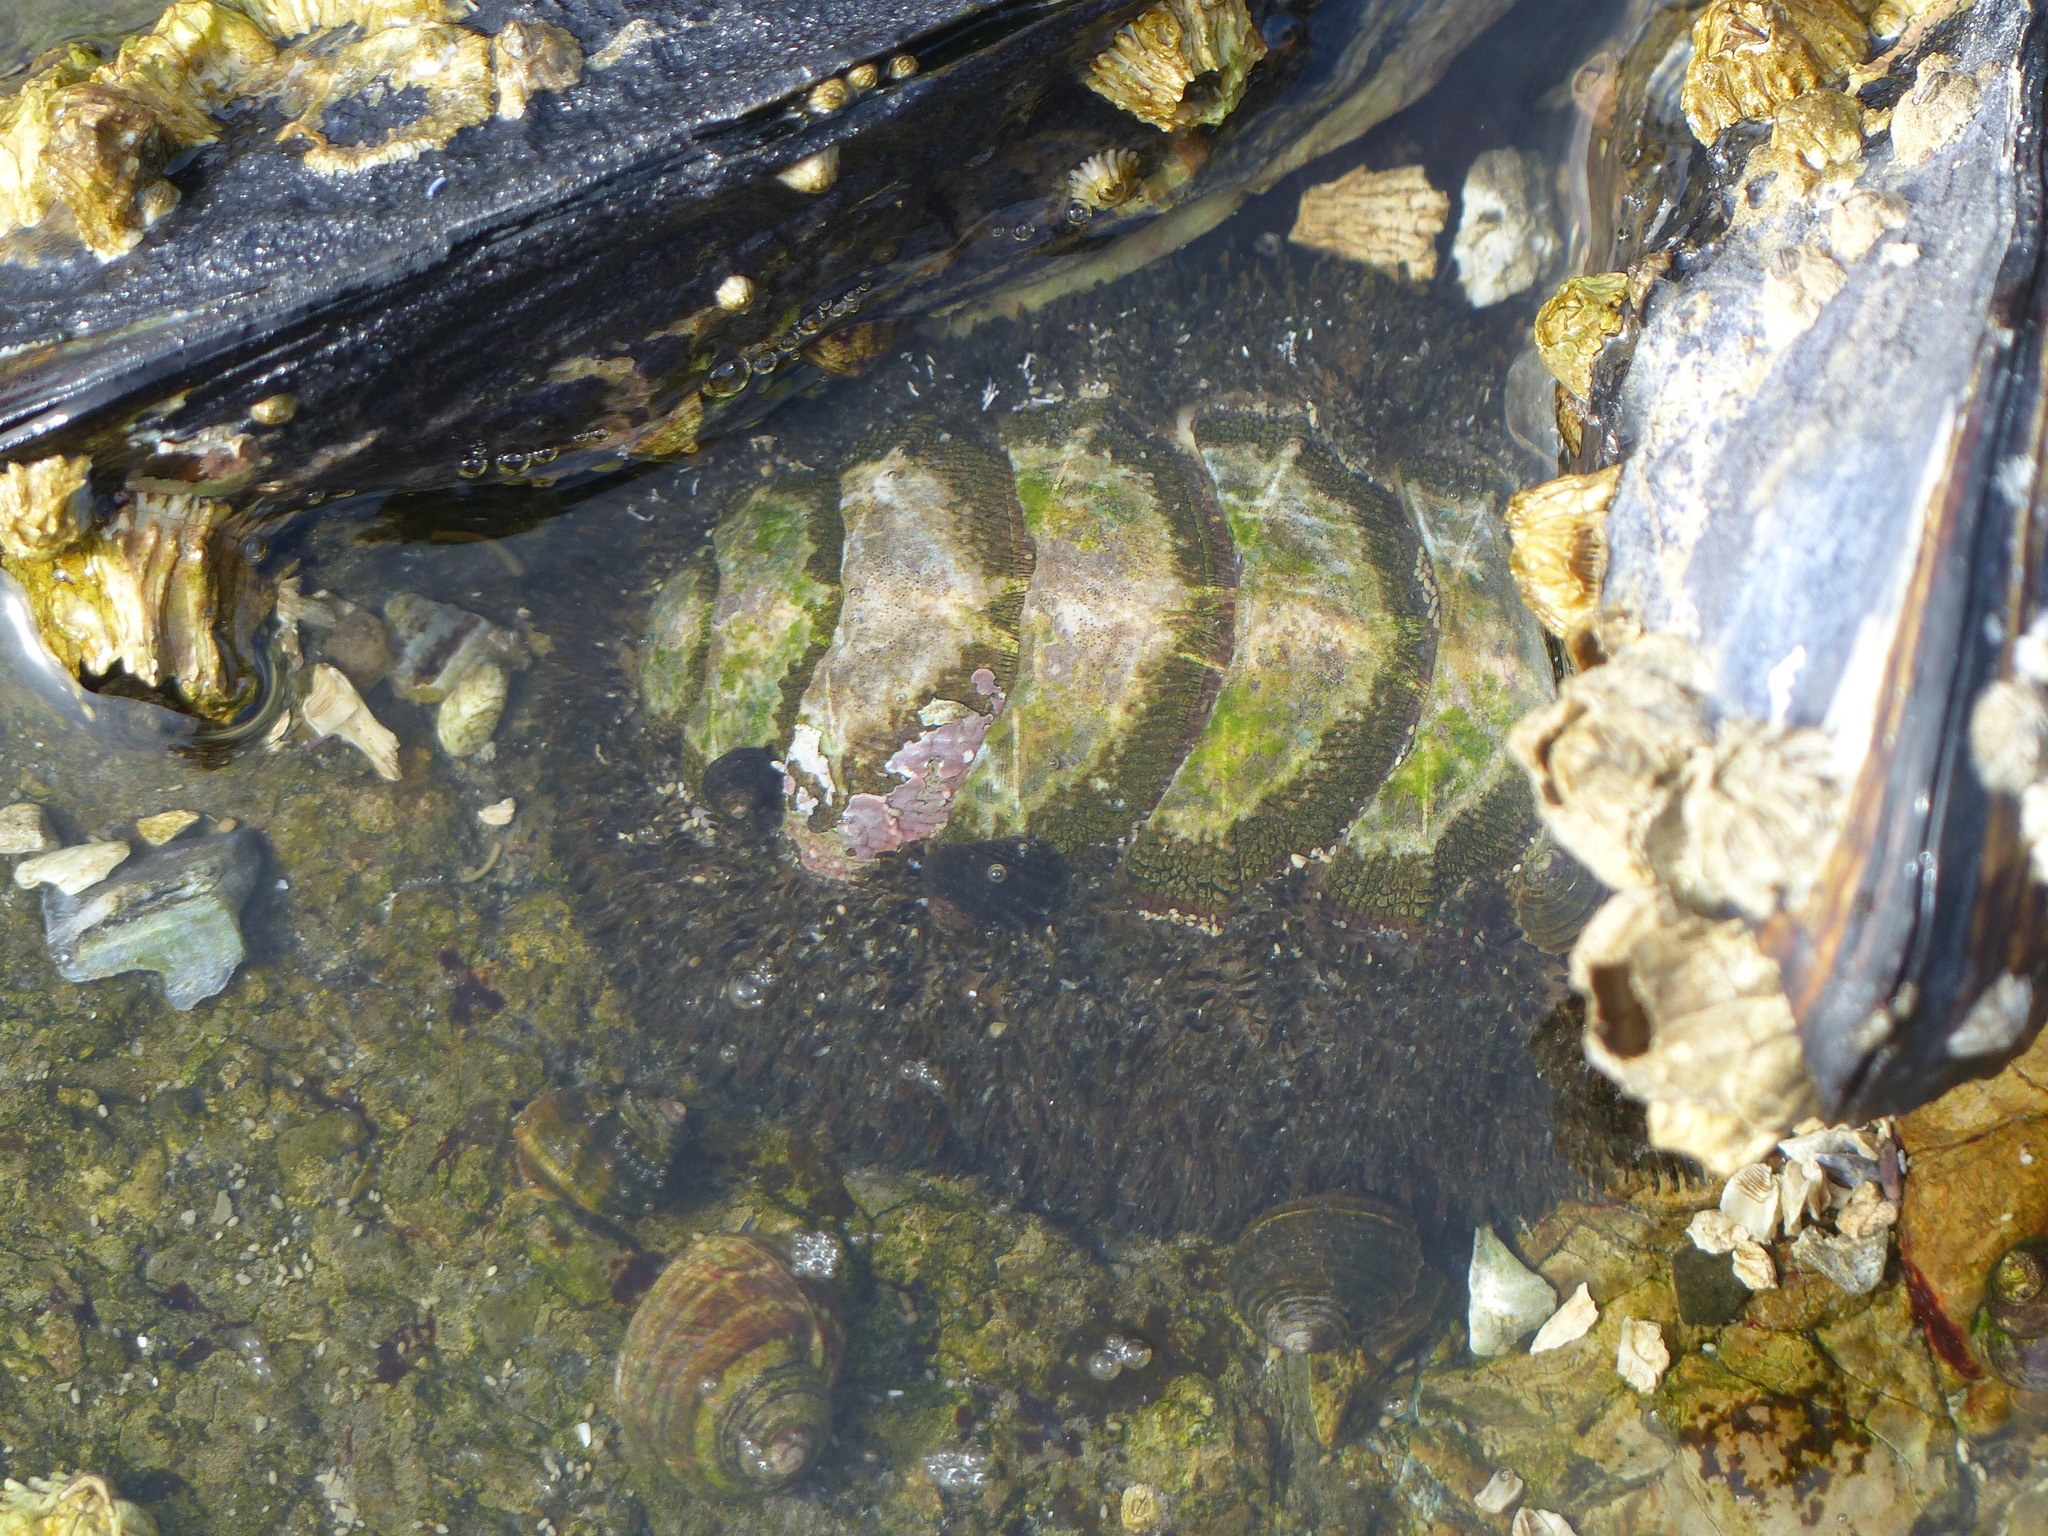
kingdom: Animalia
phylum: Mollusca
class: Polyplacophora
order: Chitonida
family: Mopaliidae
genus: Mopalia
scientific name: Mopalia muscosa
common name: Mossy chiton
